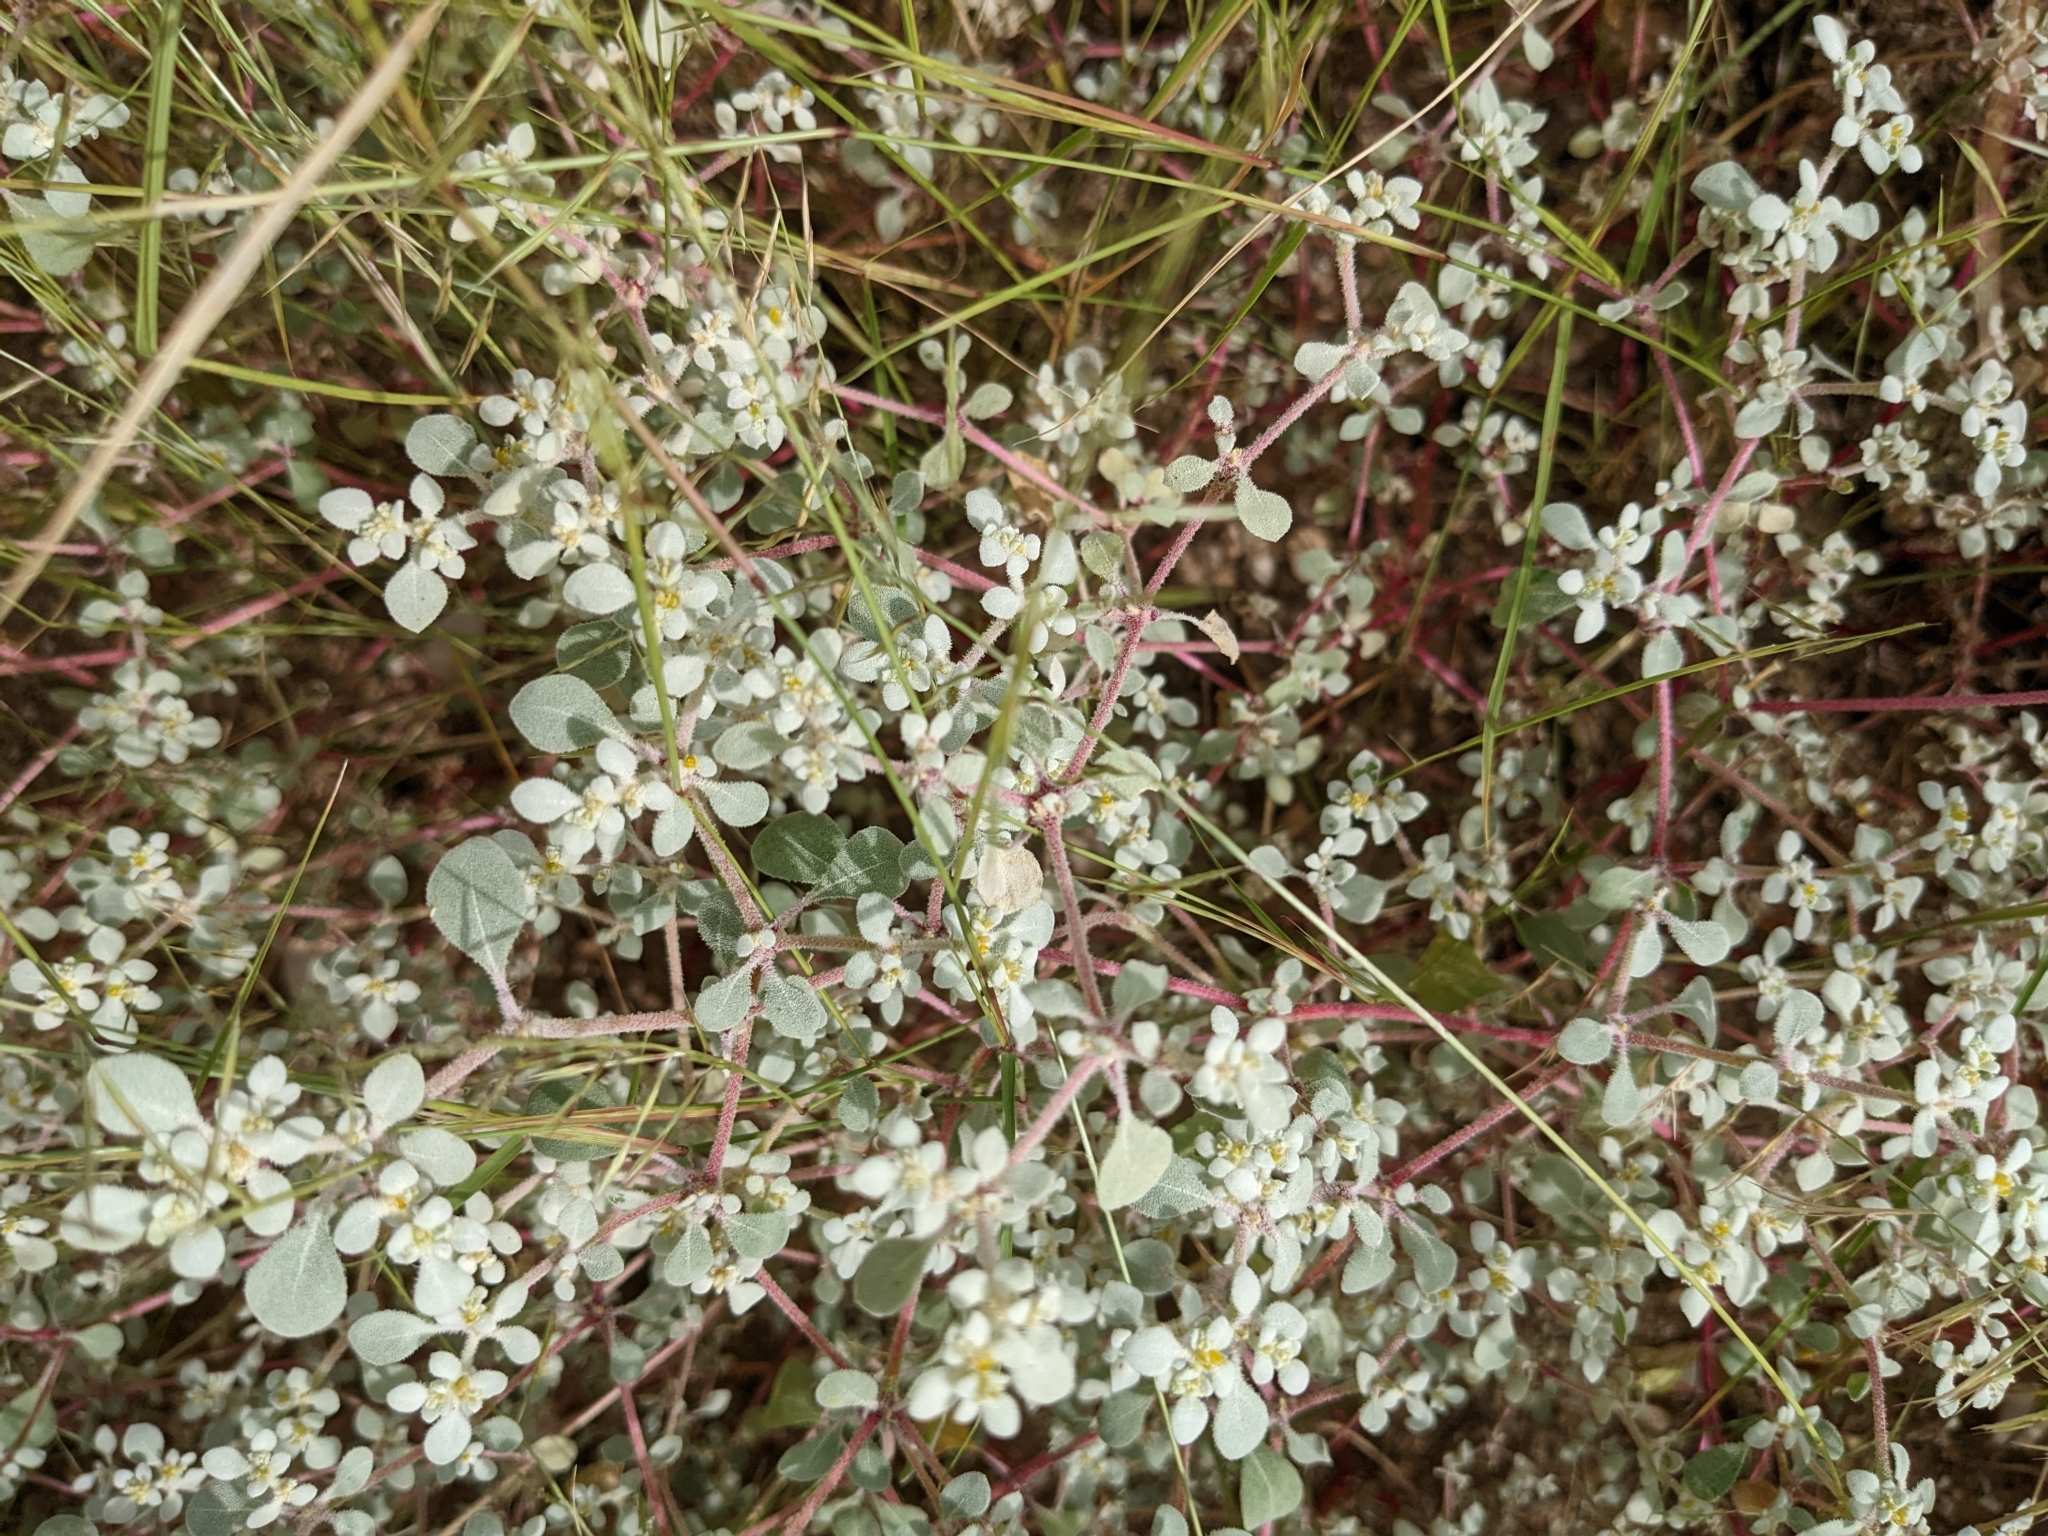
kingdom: Plantae
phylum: Tracheophyta
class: Magnoliopsida
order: Caryophyllales
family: Amaranthaceae
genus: Tidestromia
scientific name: Tidestromia lanuginosa
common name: Woolly tidestromia
